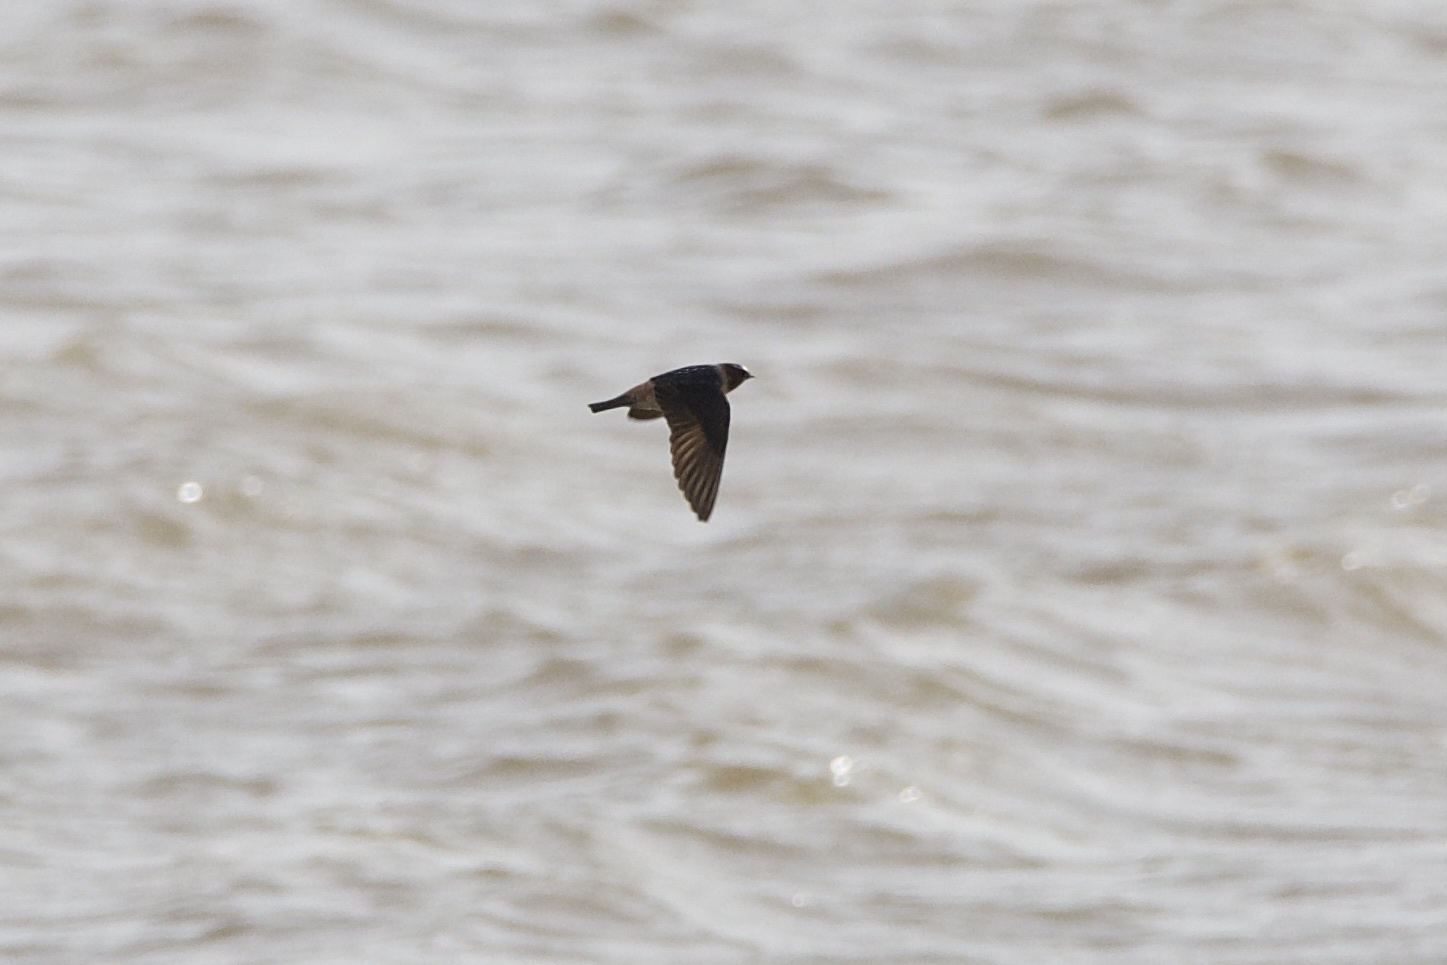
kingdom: Animalia
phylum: Chordata
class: Aves
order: Passeriformes
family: Hirundinidae
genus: Petrochelidon
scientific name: Petrochelidon pyrrhonota
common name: American cliff swallow
